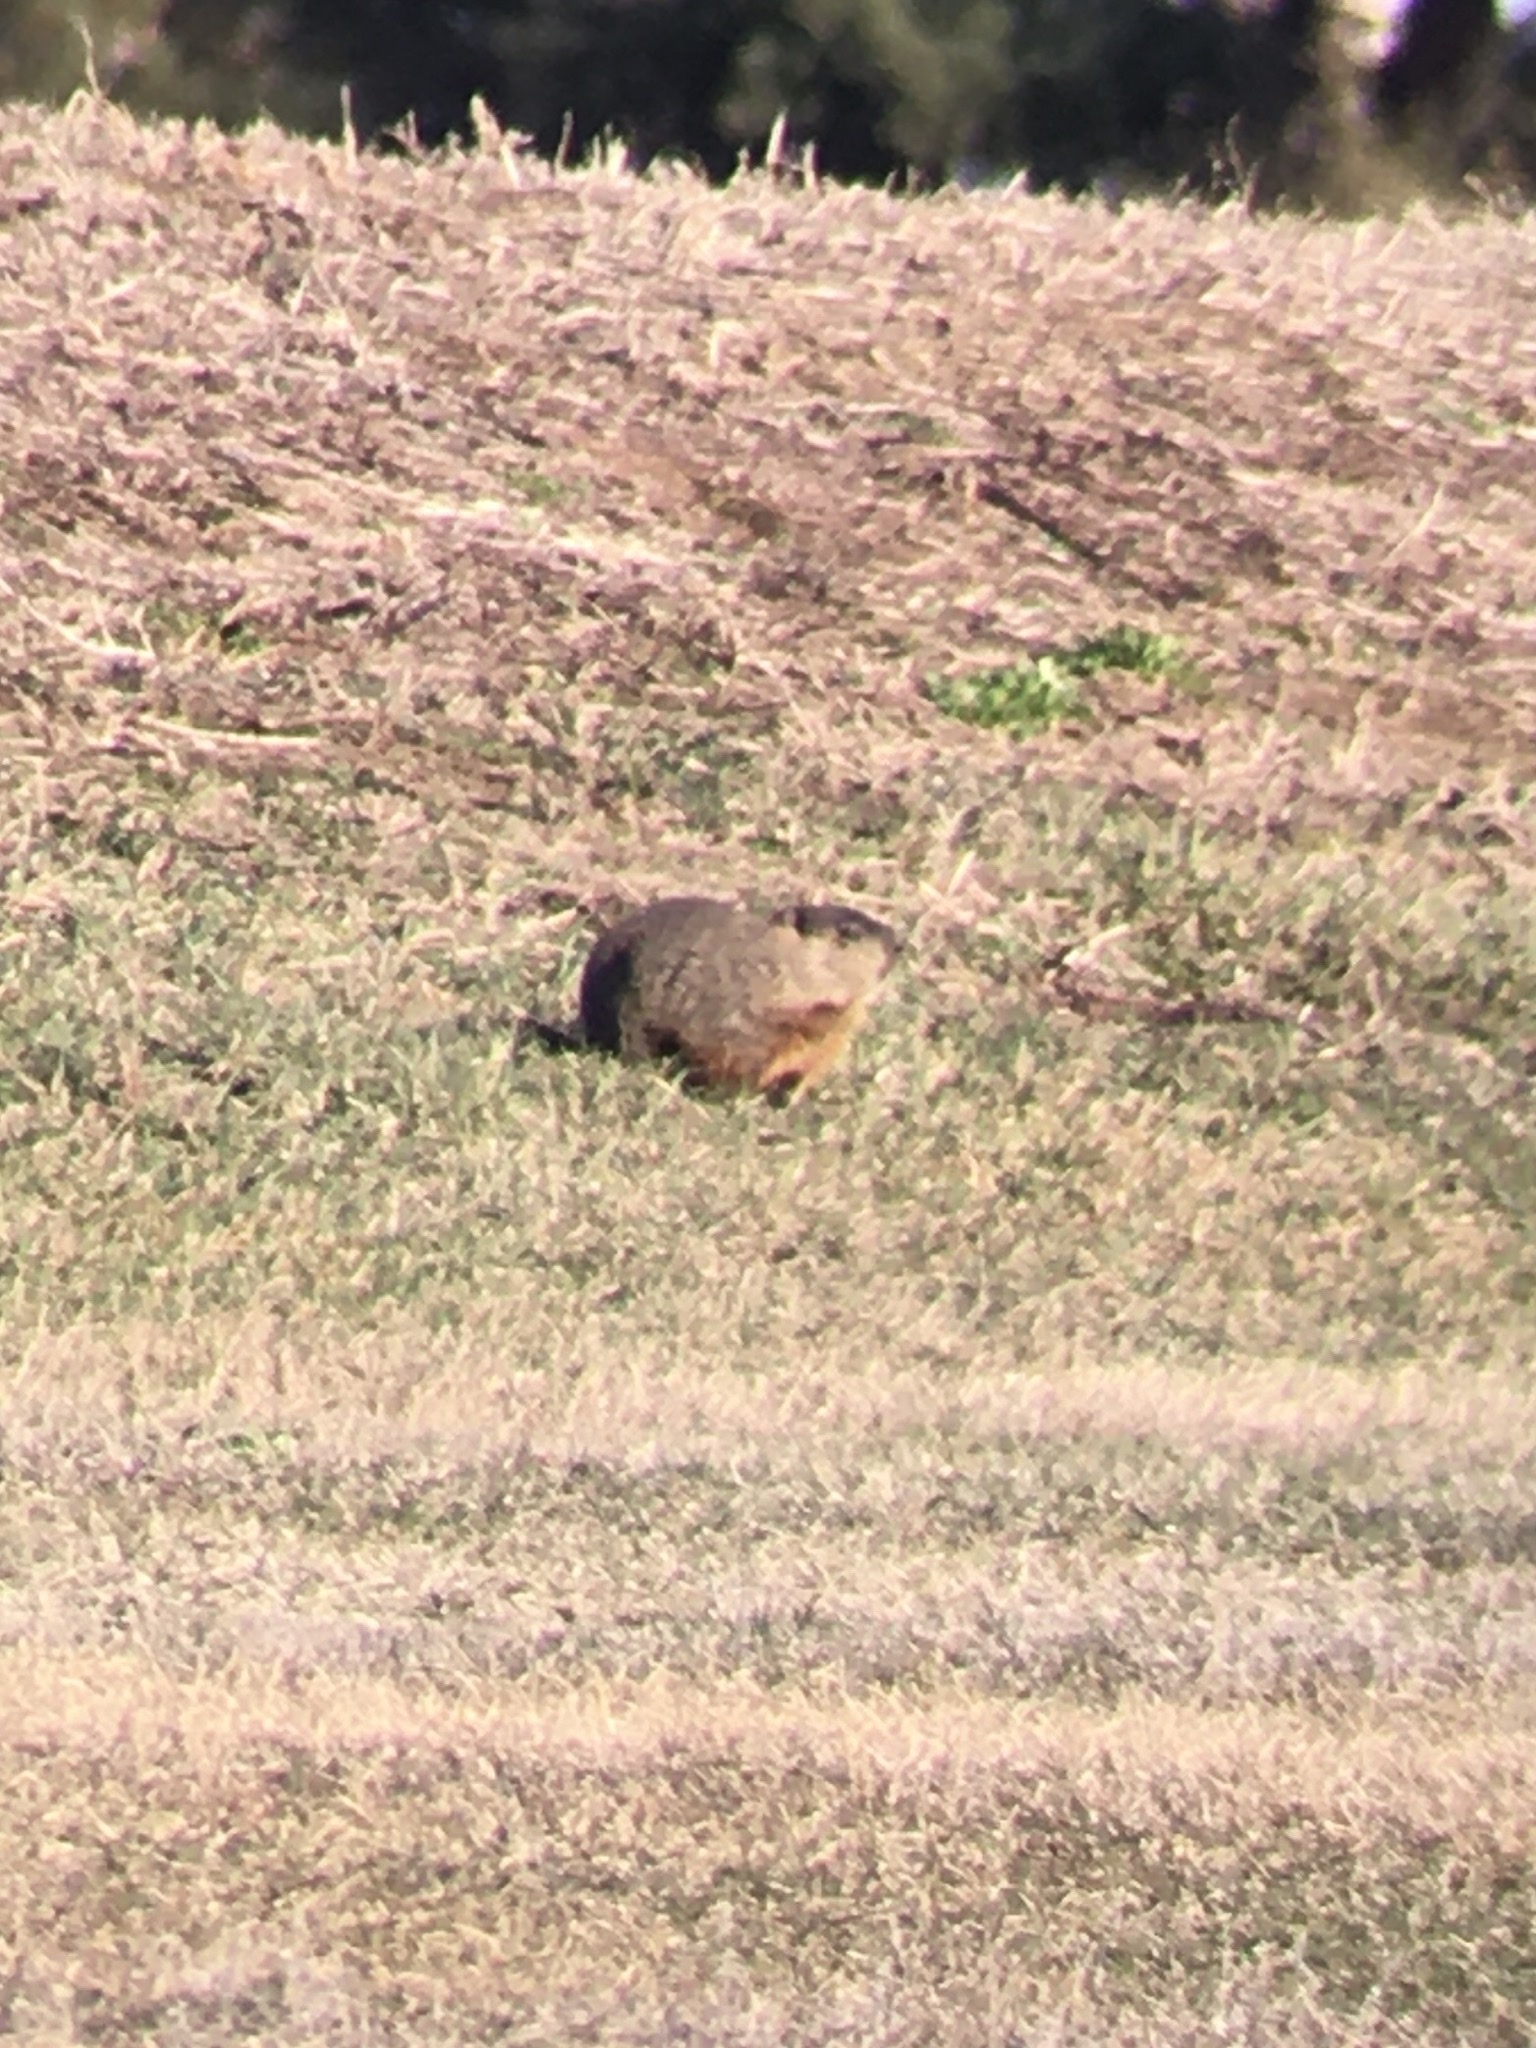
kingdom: Animalia
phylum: Chordata
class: Mammalia
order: Rodentia
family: Sciuridae
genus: Marmota
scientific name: Marmota monax
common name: Groundhog
